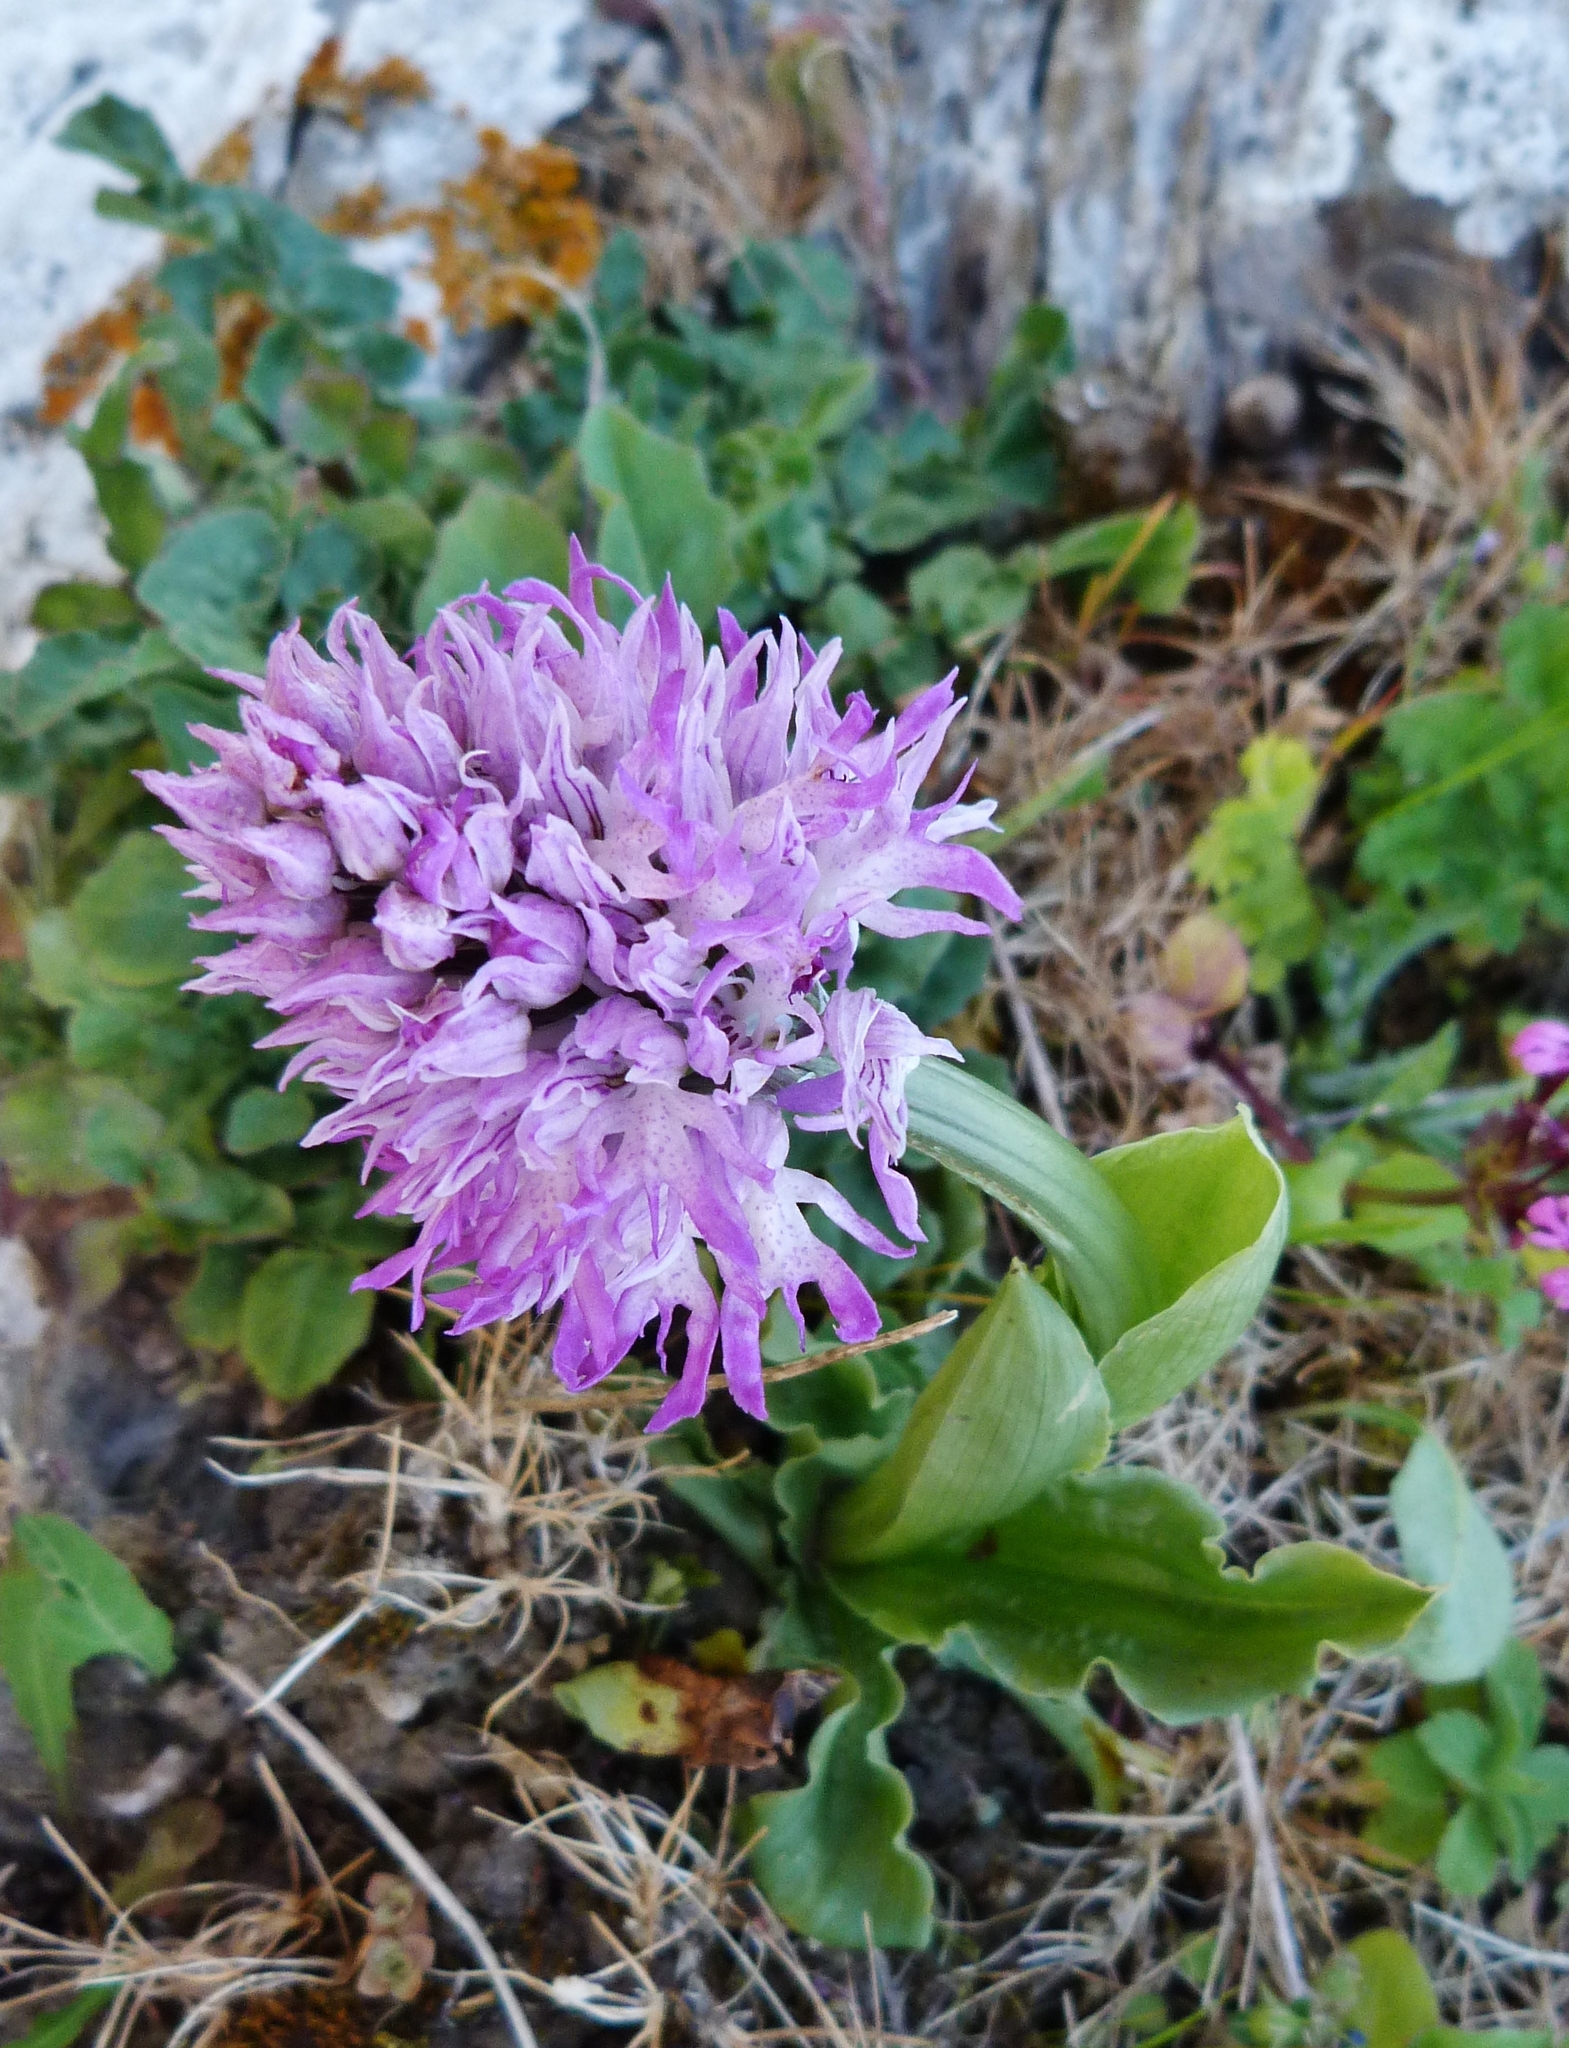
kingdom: Plantae
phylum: Tracheophyta
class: Liliopsida
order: Asparagales
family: Orchidaceae
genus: Orchis
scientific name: Orchis italica
